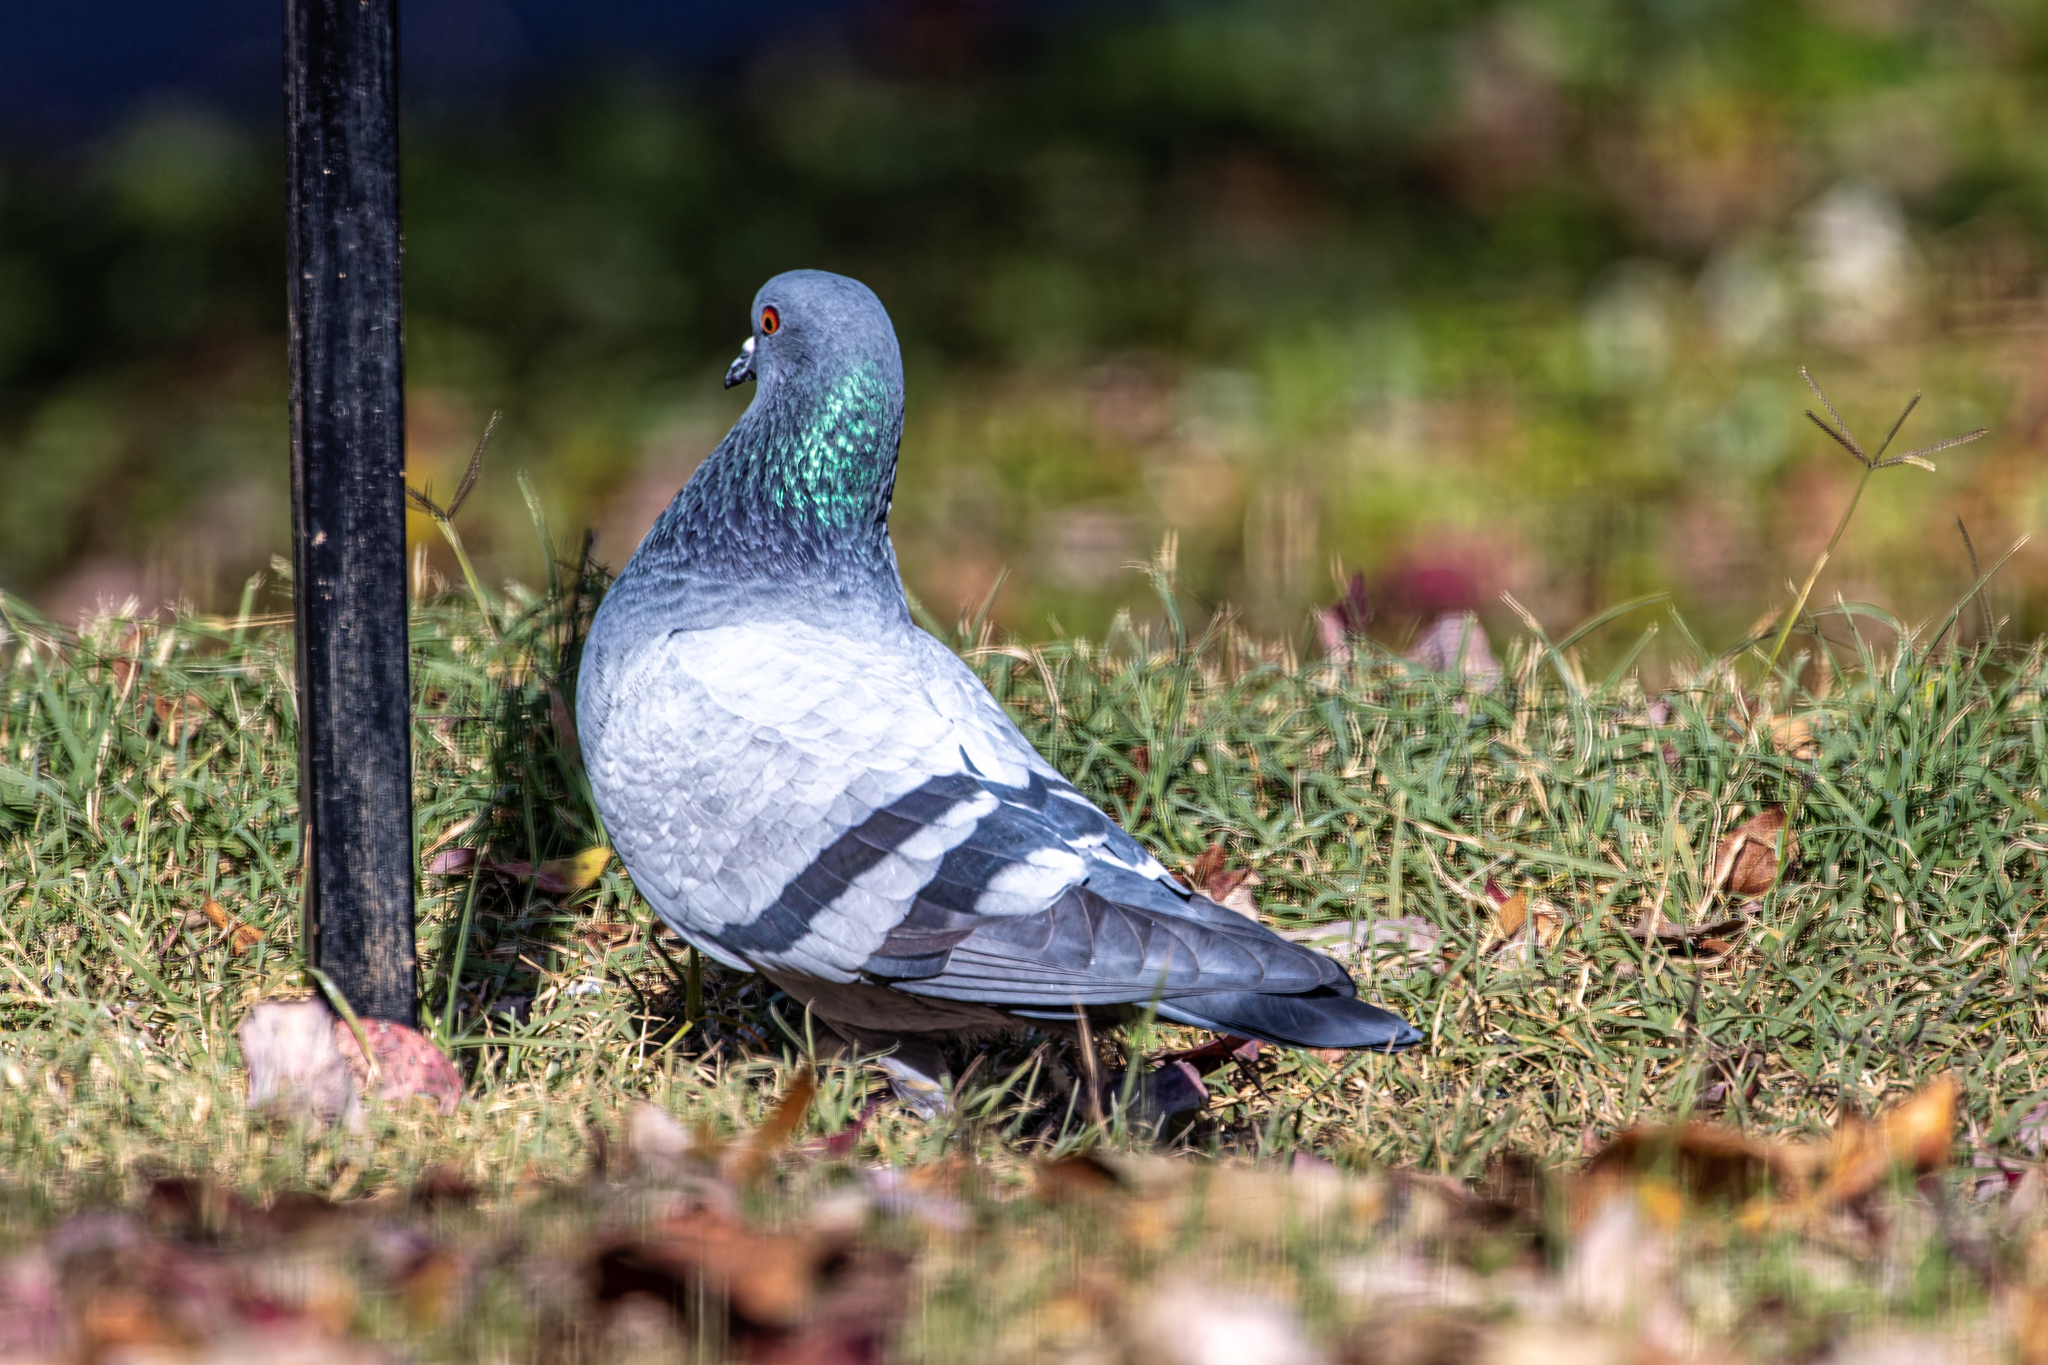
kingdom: Animalia
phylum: Chordata
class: Aves
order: Columbiformes
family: Columbidae
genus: Columba
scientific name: Columba livia
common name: Rock pigeon
